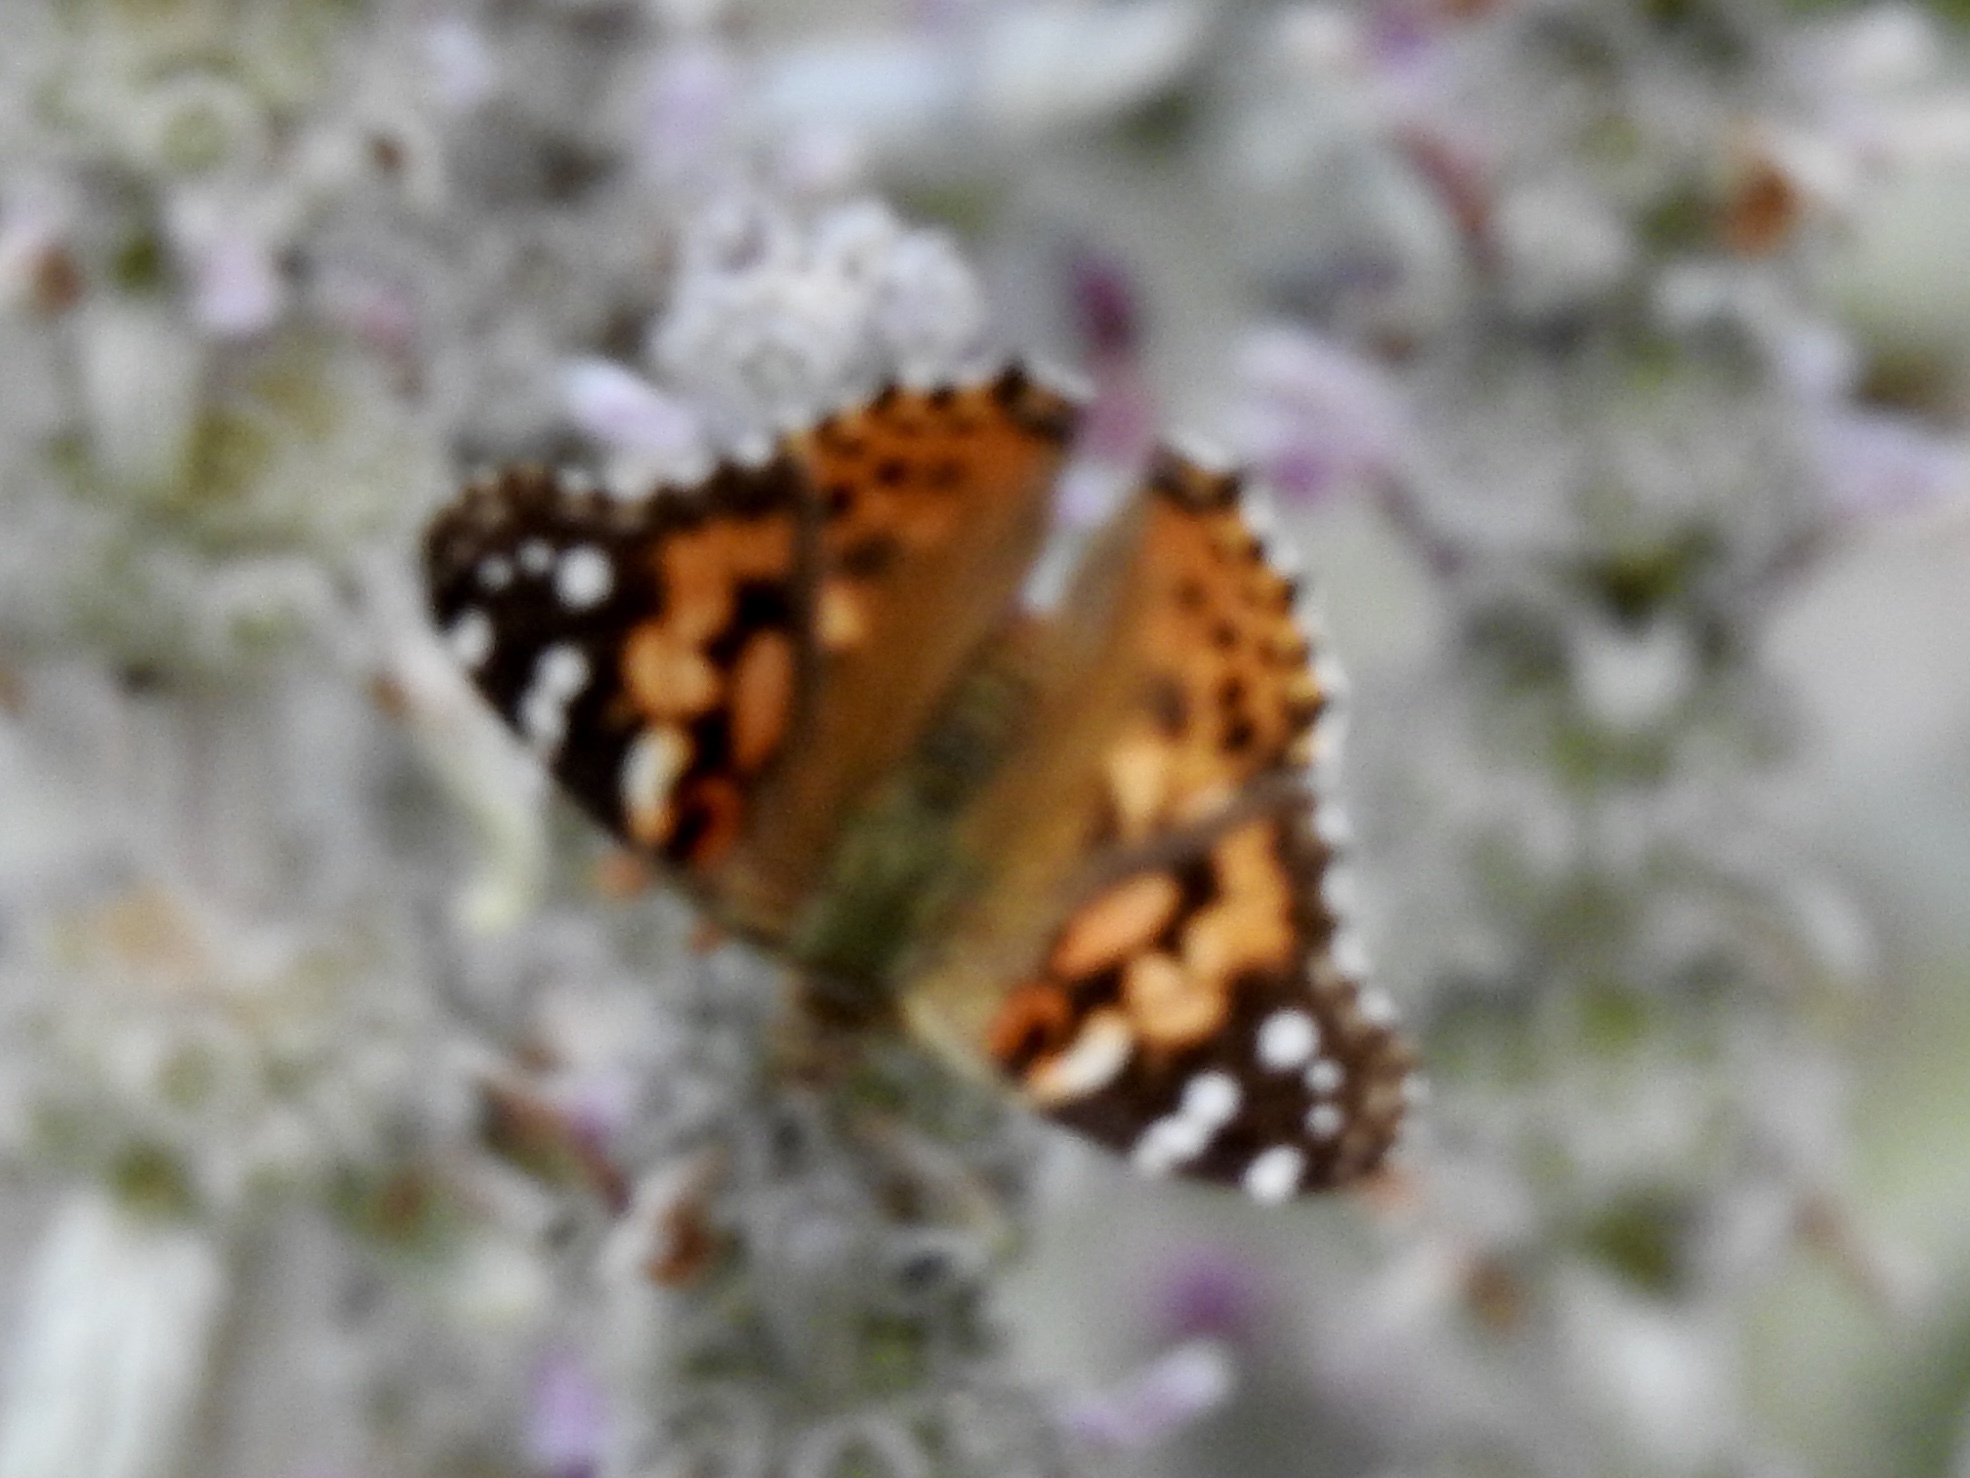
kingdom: Animalia
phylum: Arthropoda
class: Insecta
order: Lepidoptera
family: Nymphalidae
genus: Vanessa
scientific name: Vanessa cardui
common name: Painted lady
